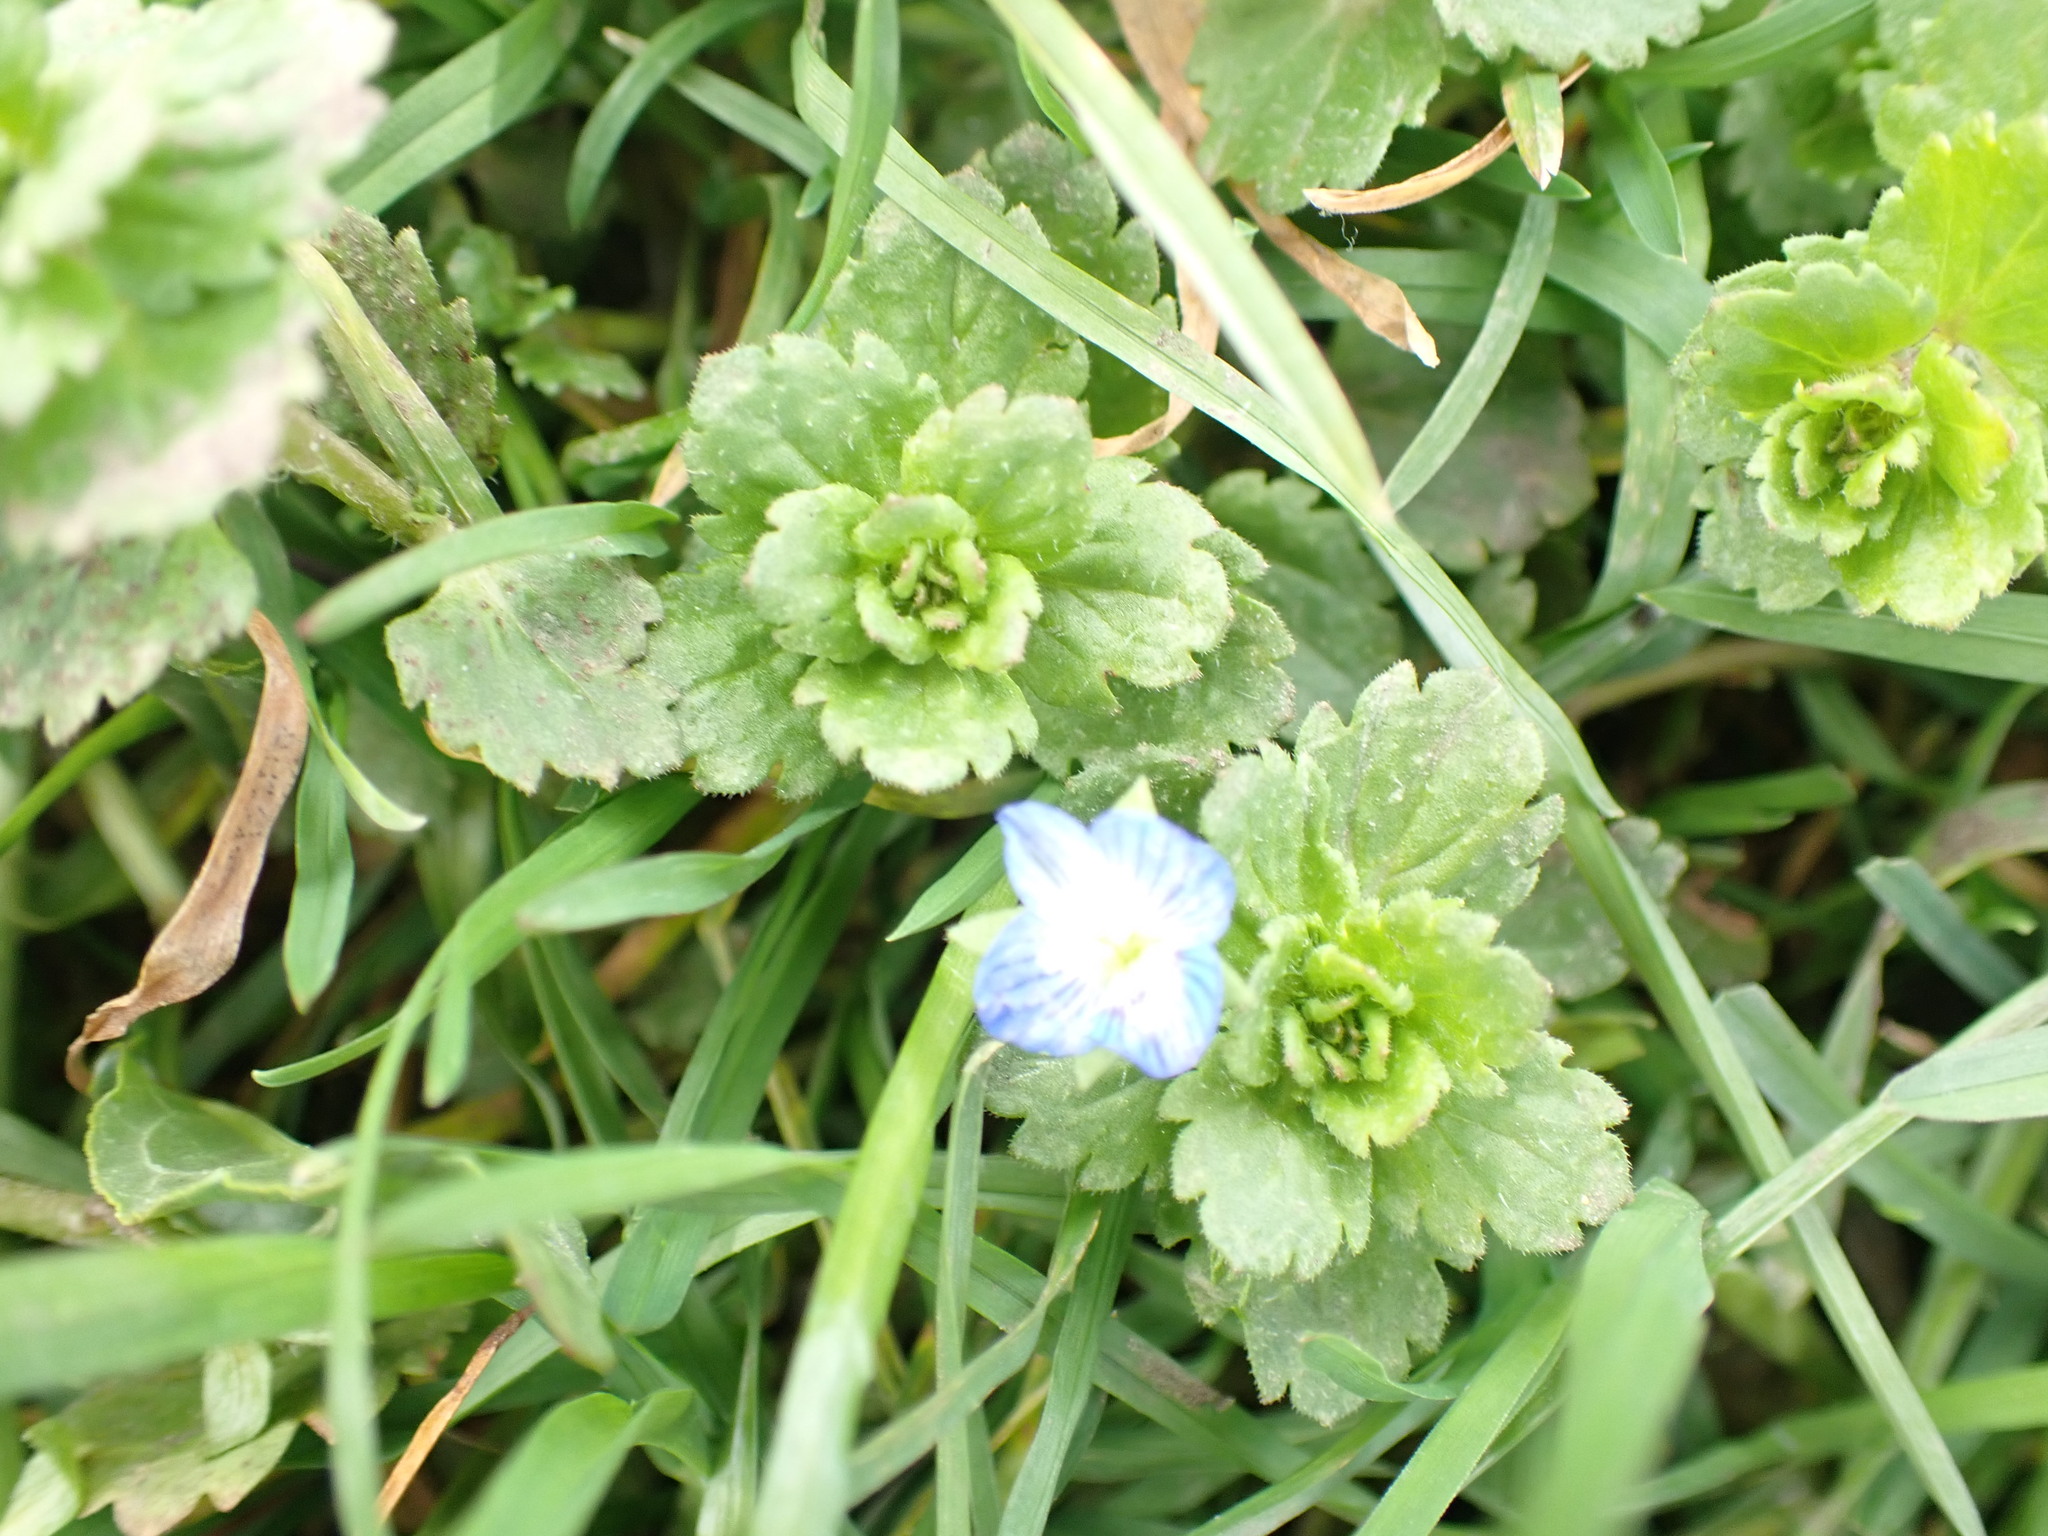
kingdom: Plantae
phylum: Tracheophyta
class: Magnoliopsida
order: Lamiales
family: Plantaginaceae
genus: Veronica
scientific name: Veronica persica
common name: Common field-speedwell
